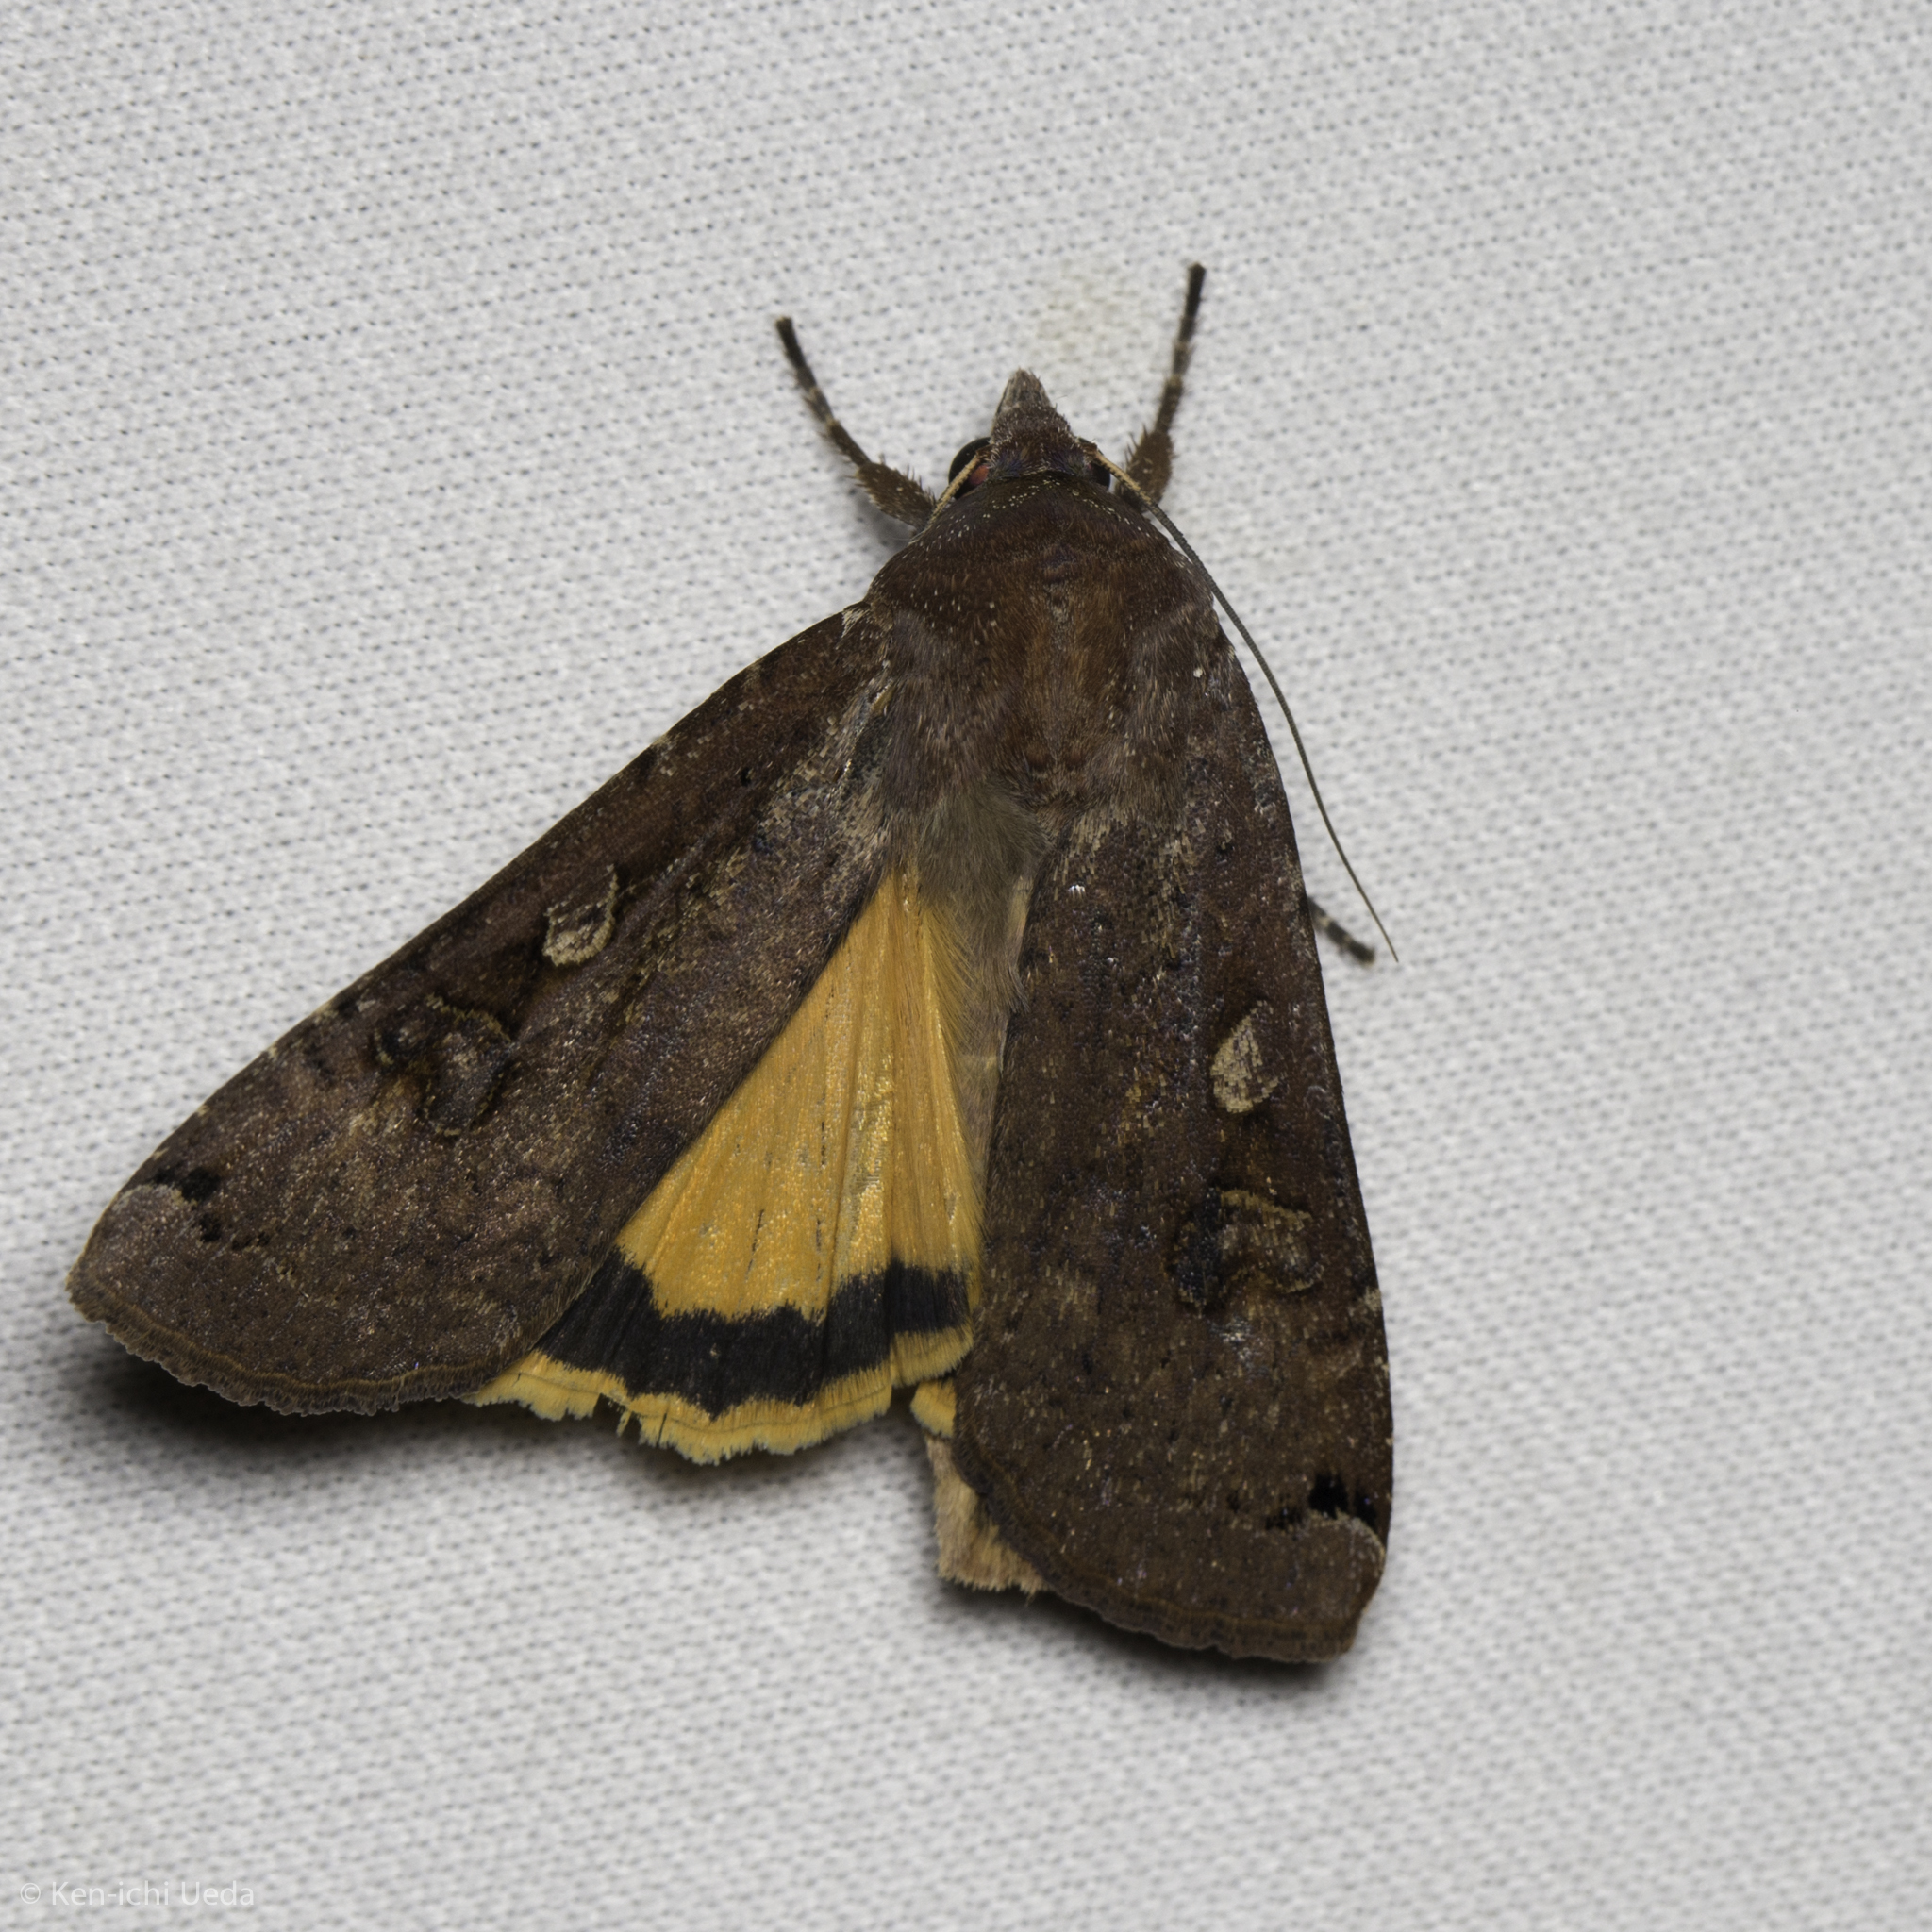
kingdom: Animalia
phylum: Arthropoda
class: Insecta
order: Lepidoptera
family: Noctuidae
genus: Noctua
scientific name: Noctua pronuba
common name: Large yellow underwing
